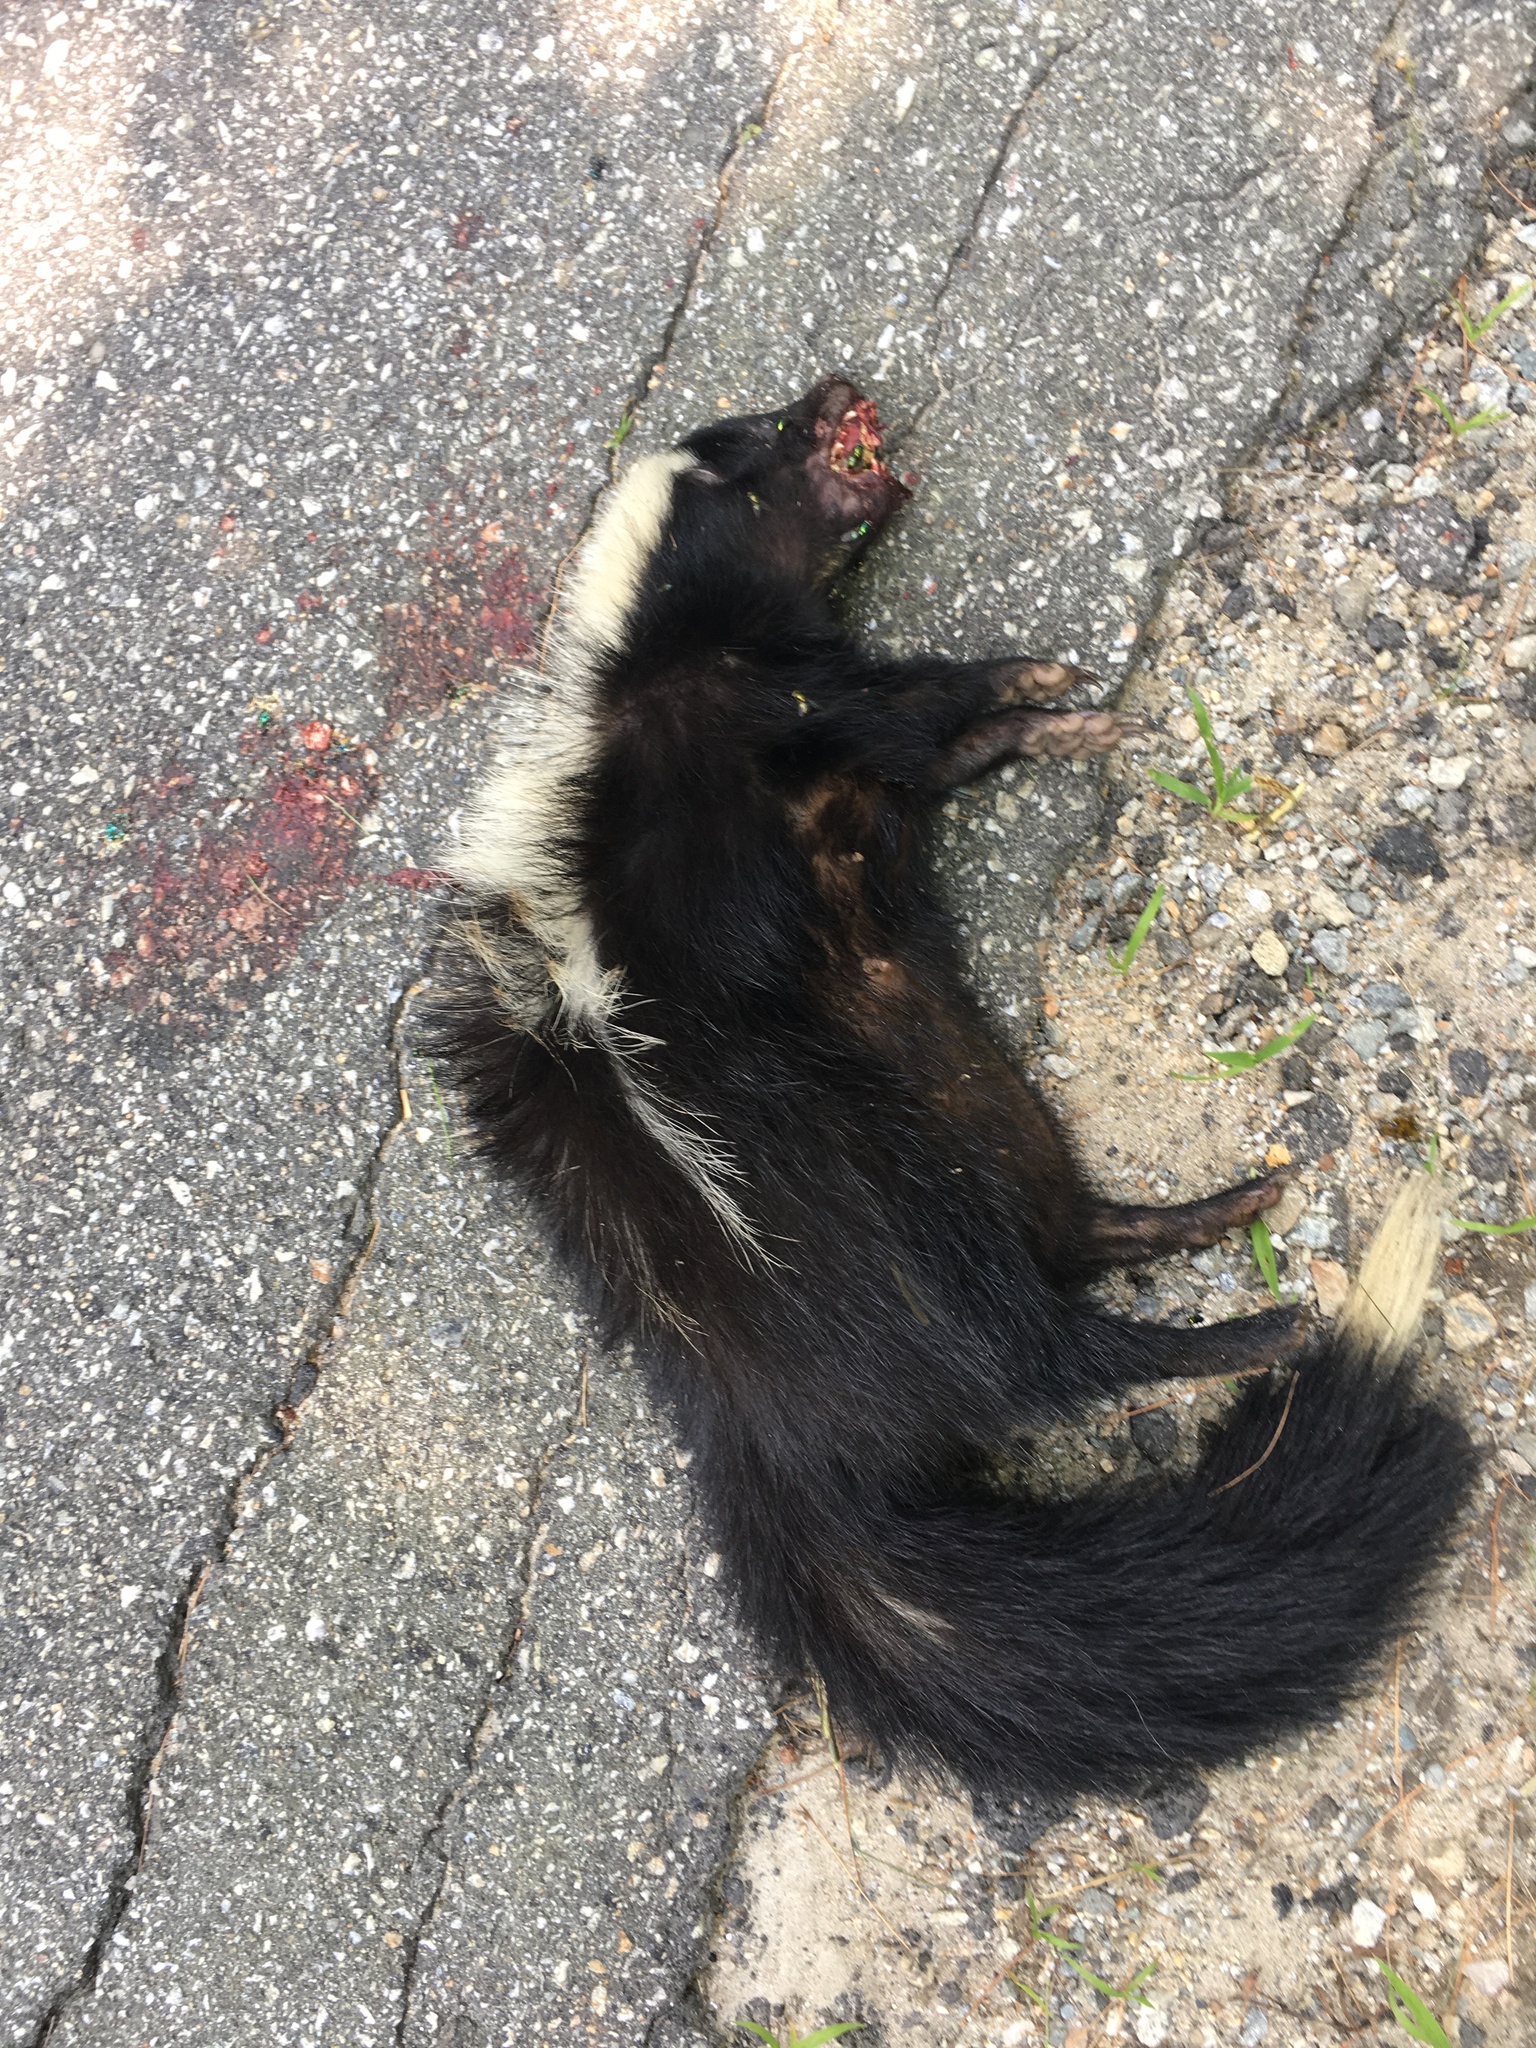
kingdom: Animalia
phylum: Chordata
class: Mammalia
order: Carnivora
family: Mephitidae
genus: Mephitis
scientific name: Mephitis mephitis
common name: Striped skunk
